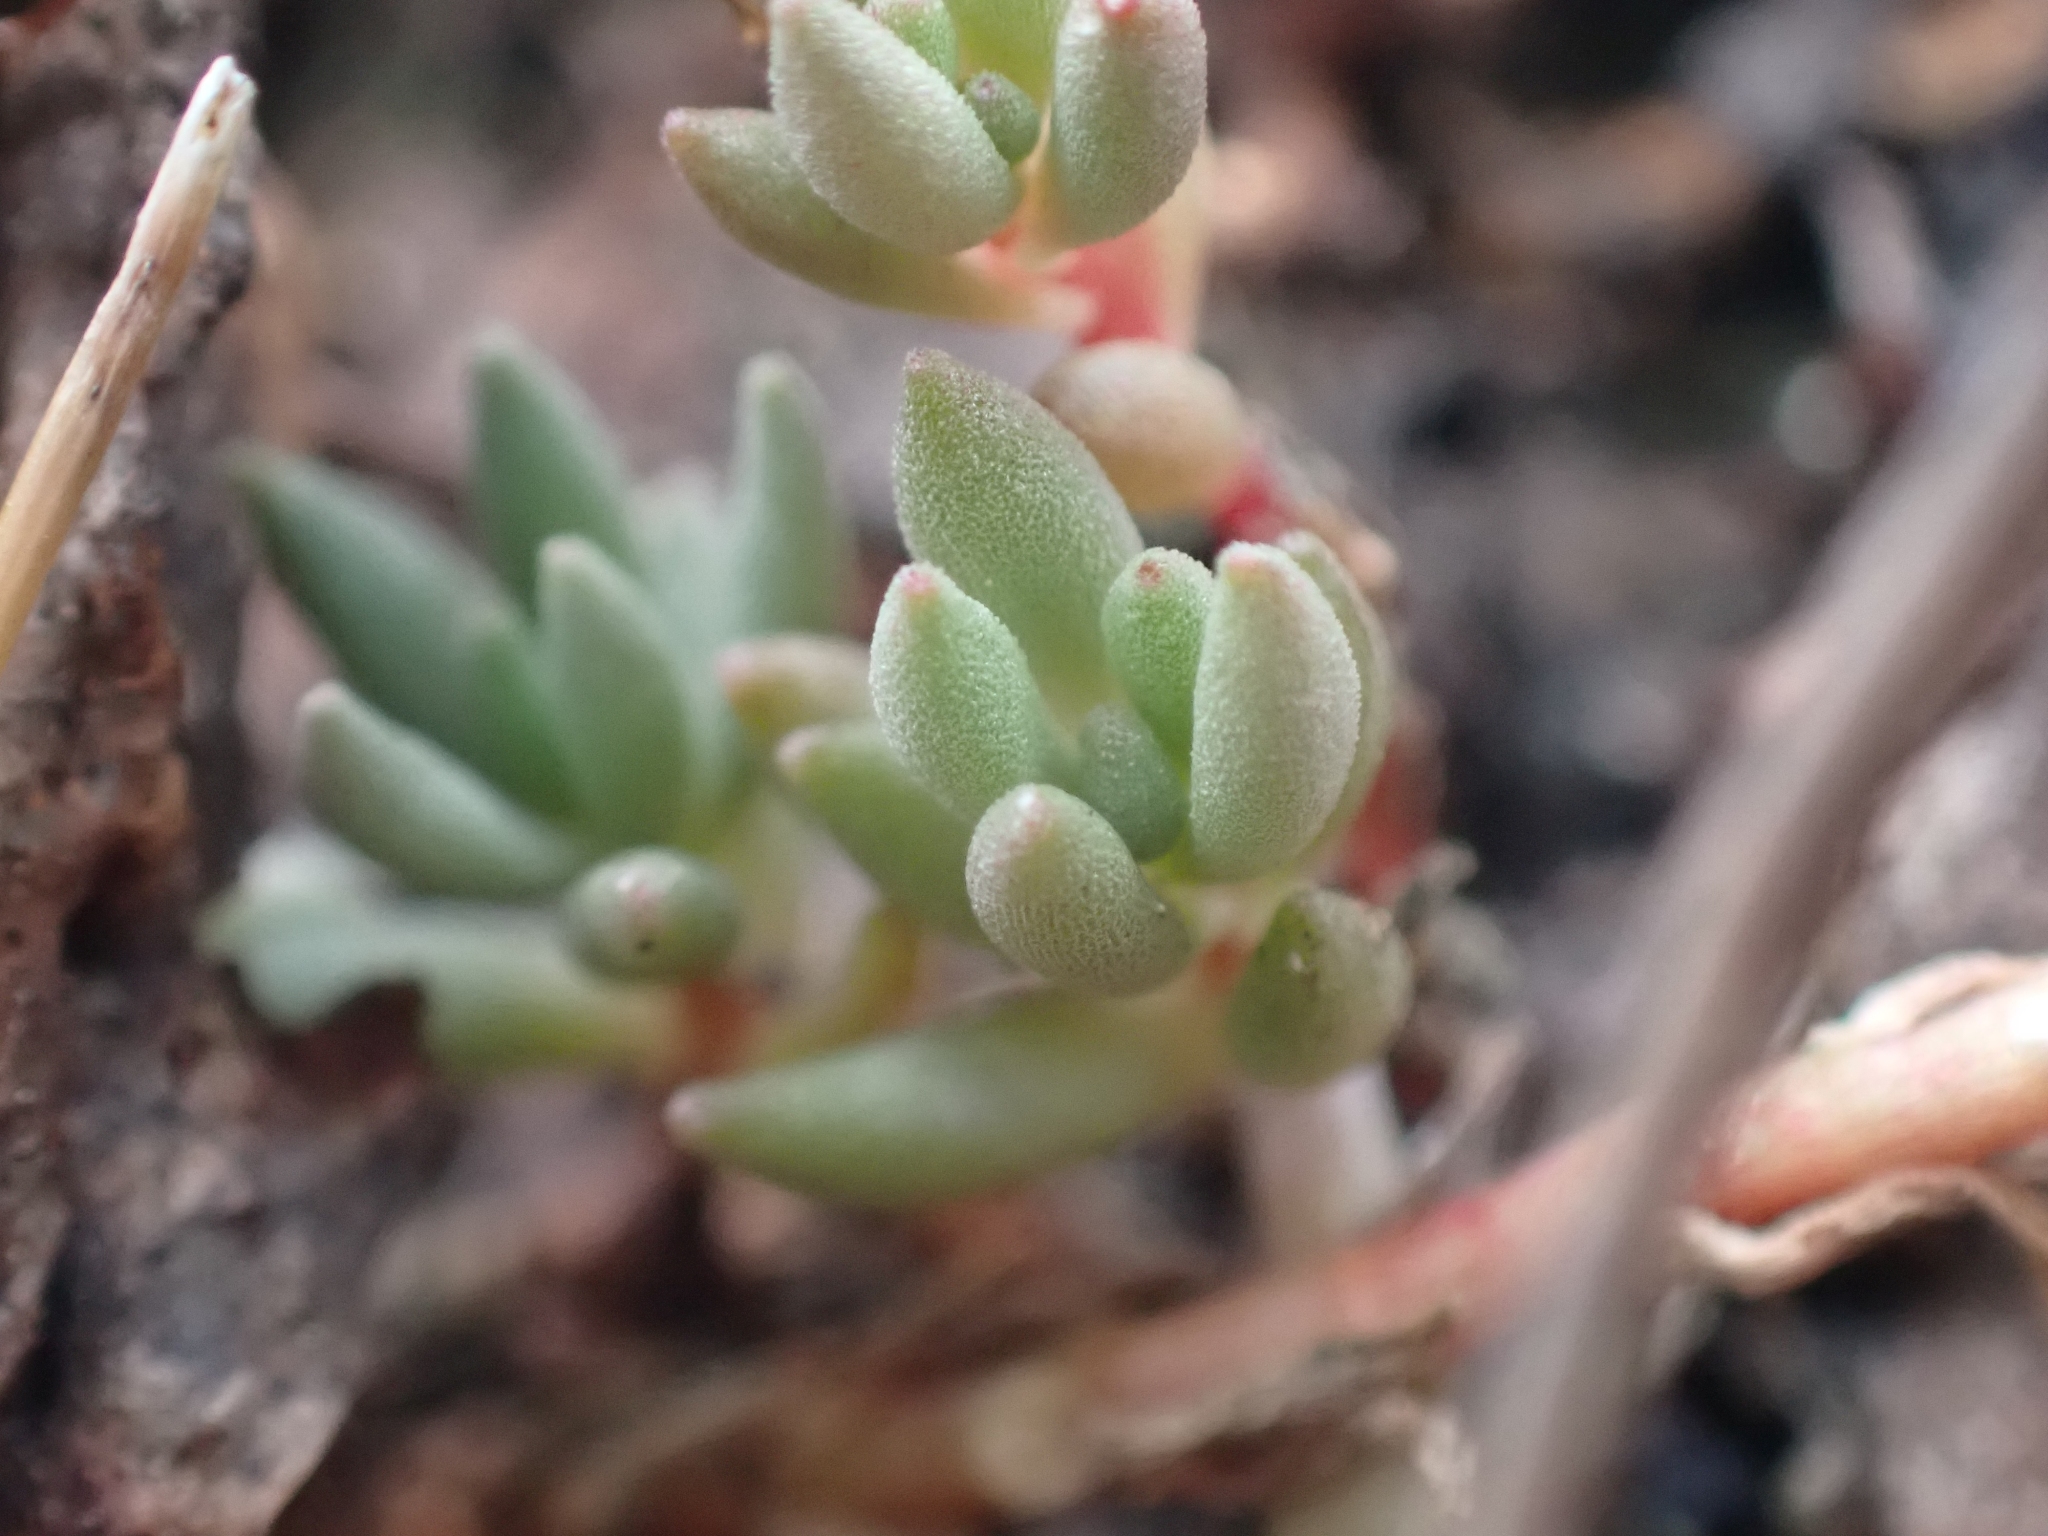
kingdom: Plantae
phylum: Tracheophyta
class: Magnoliopsida
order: Saxifragales
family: Crassulaceae
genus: Sedum
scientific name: Sedum lanceolatum
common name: Common stonecrop
